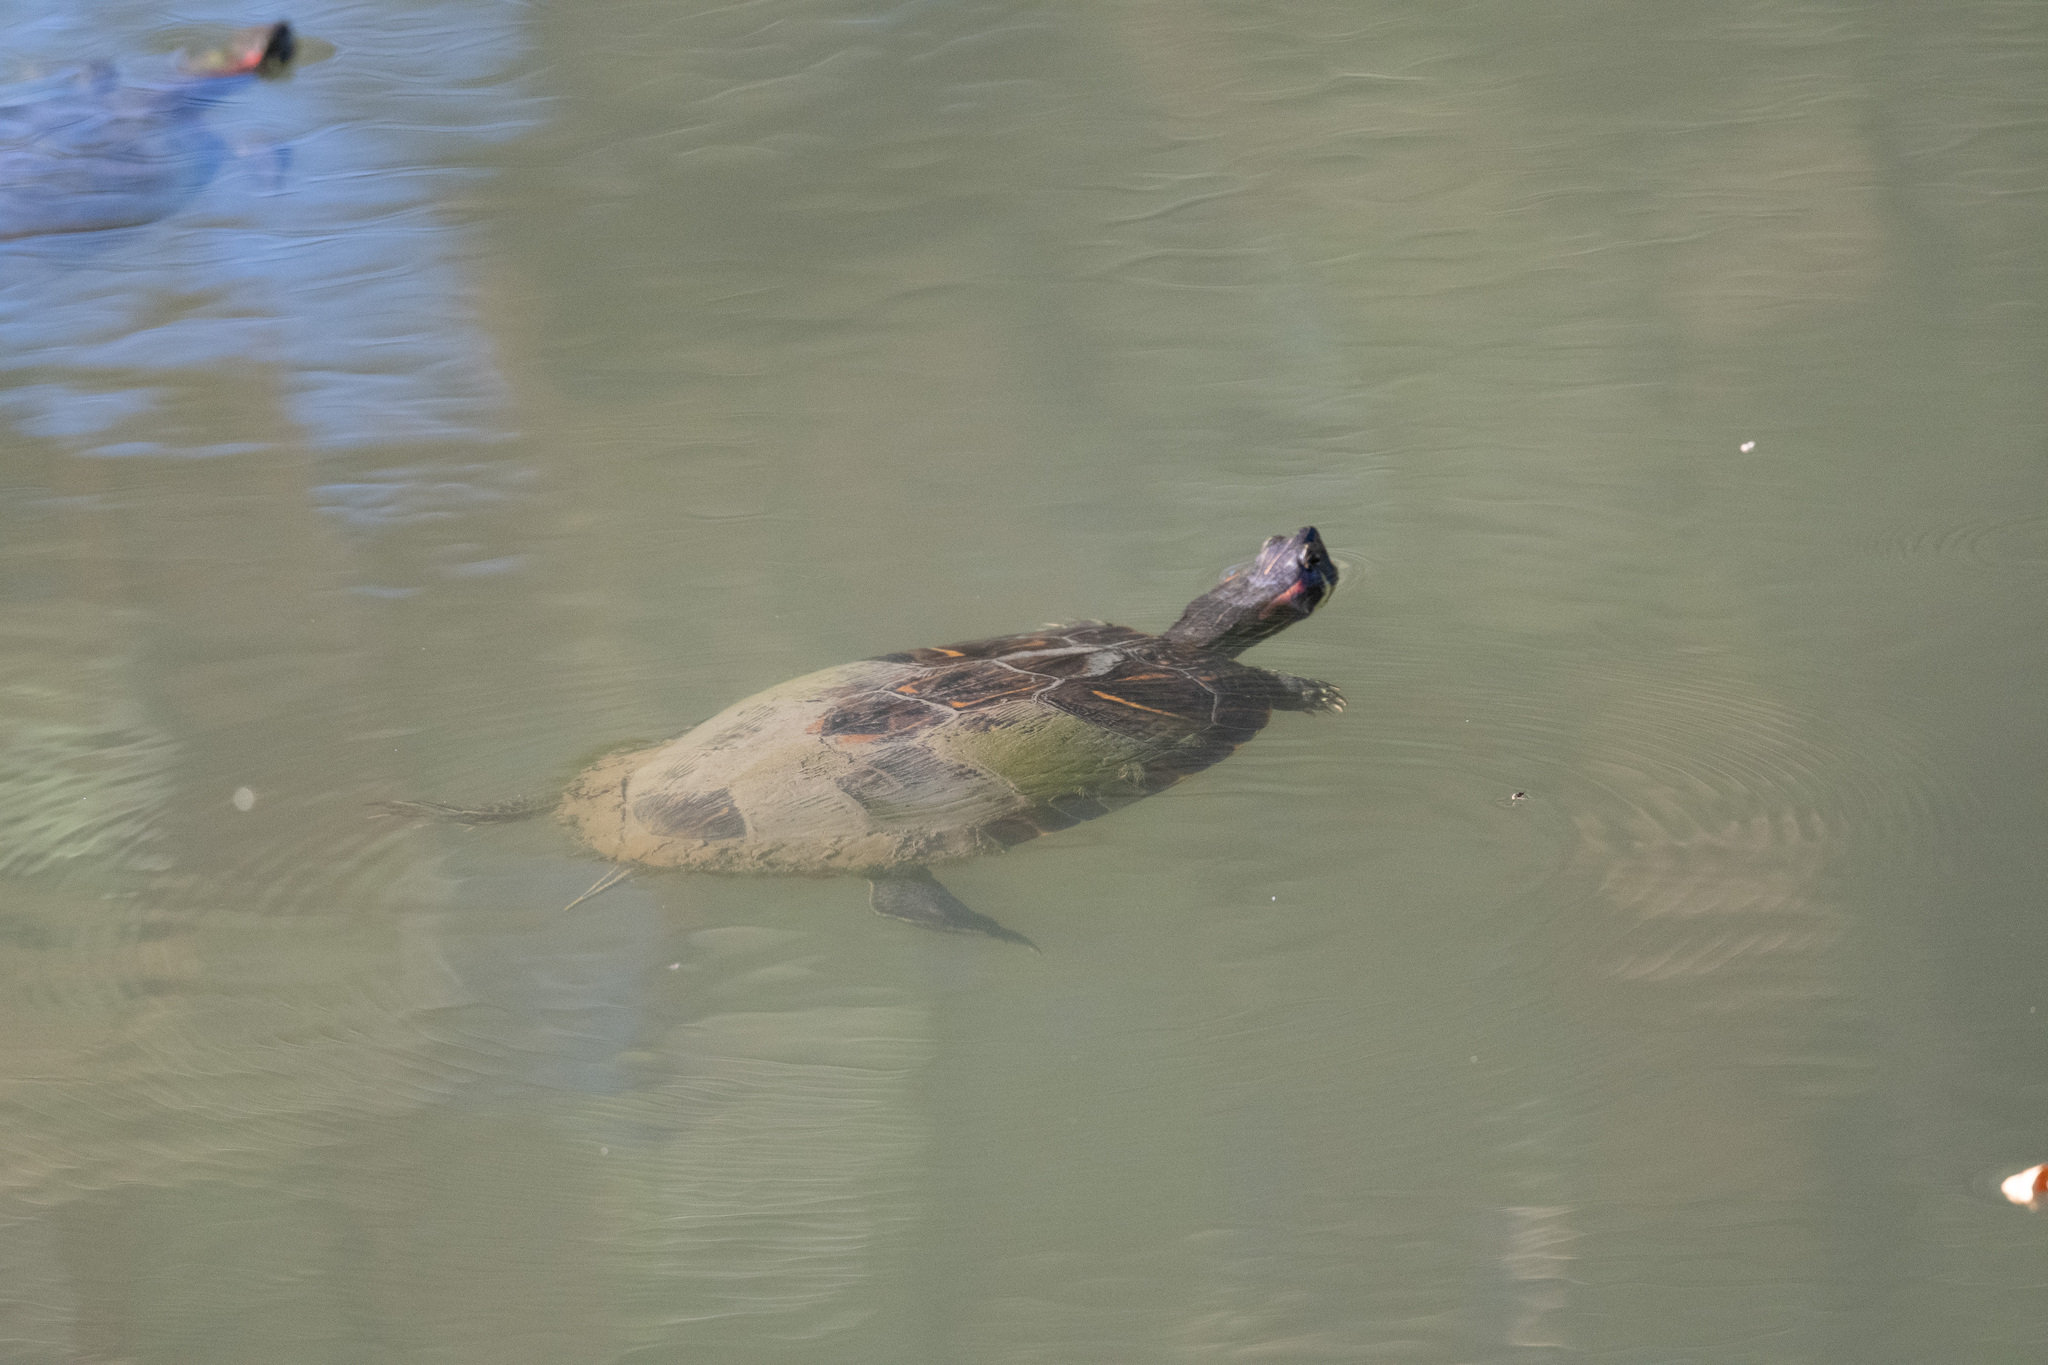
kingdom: Animalia
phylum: Chordata
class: Testudines
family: Emydidae
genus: Trachemys
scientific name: Trachemys scripta
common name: Slider
